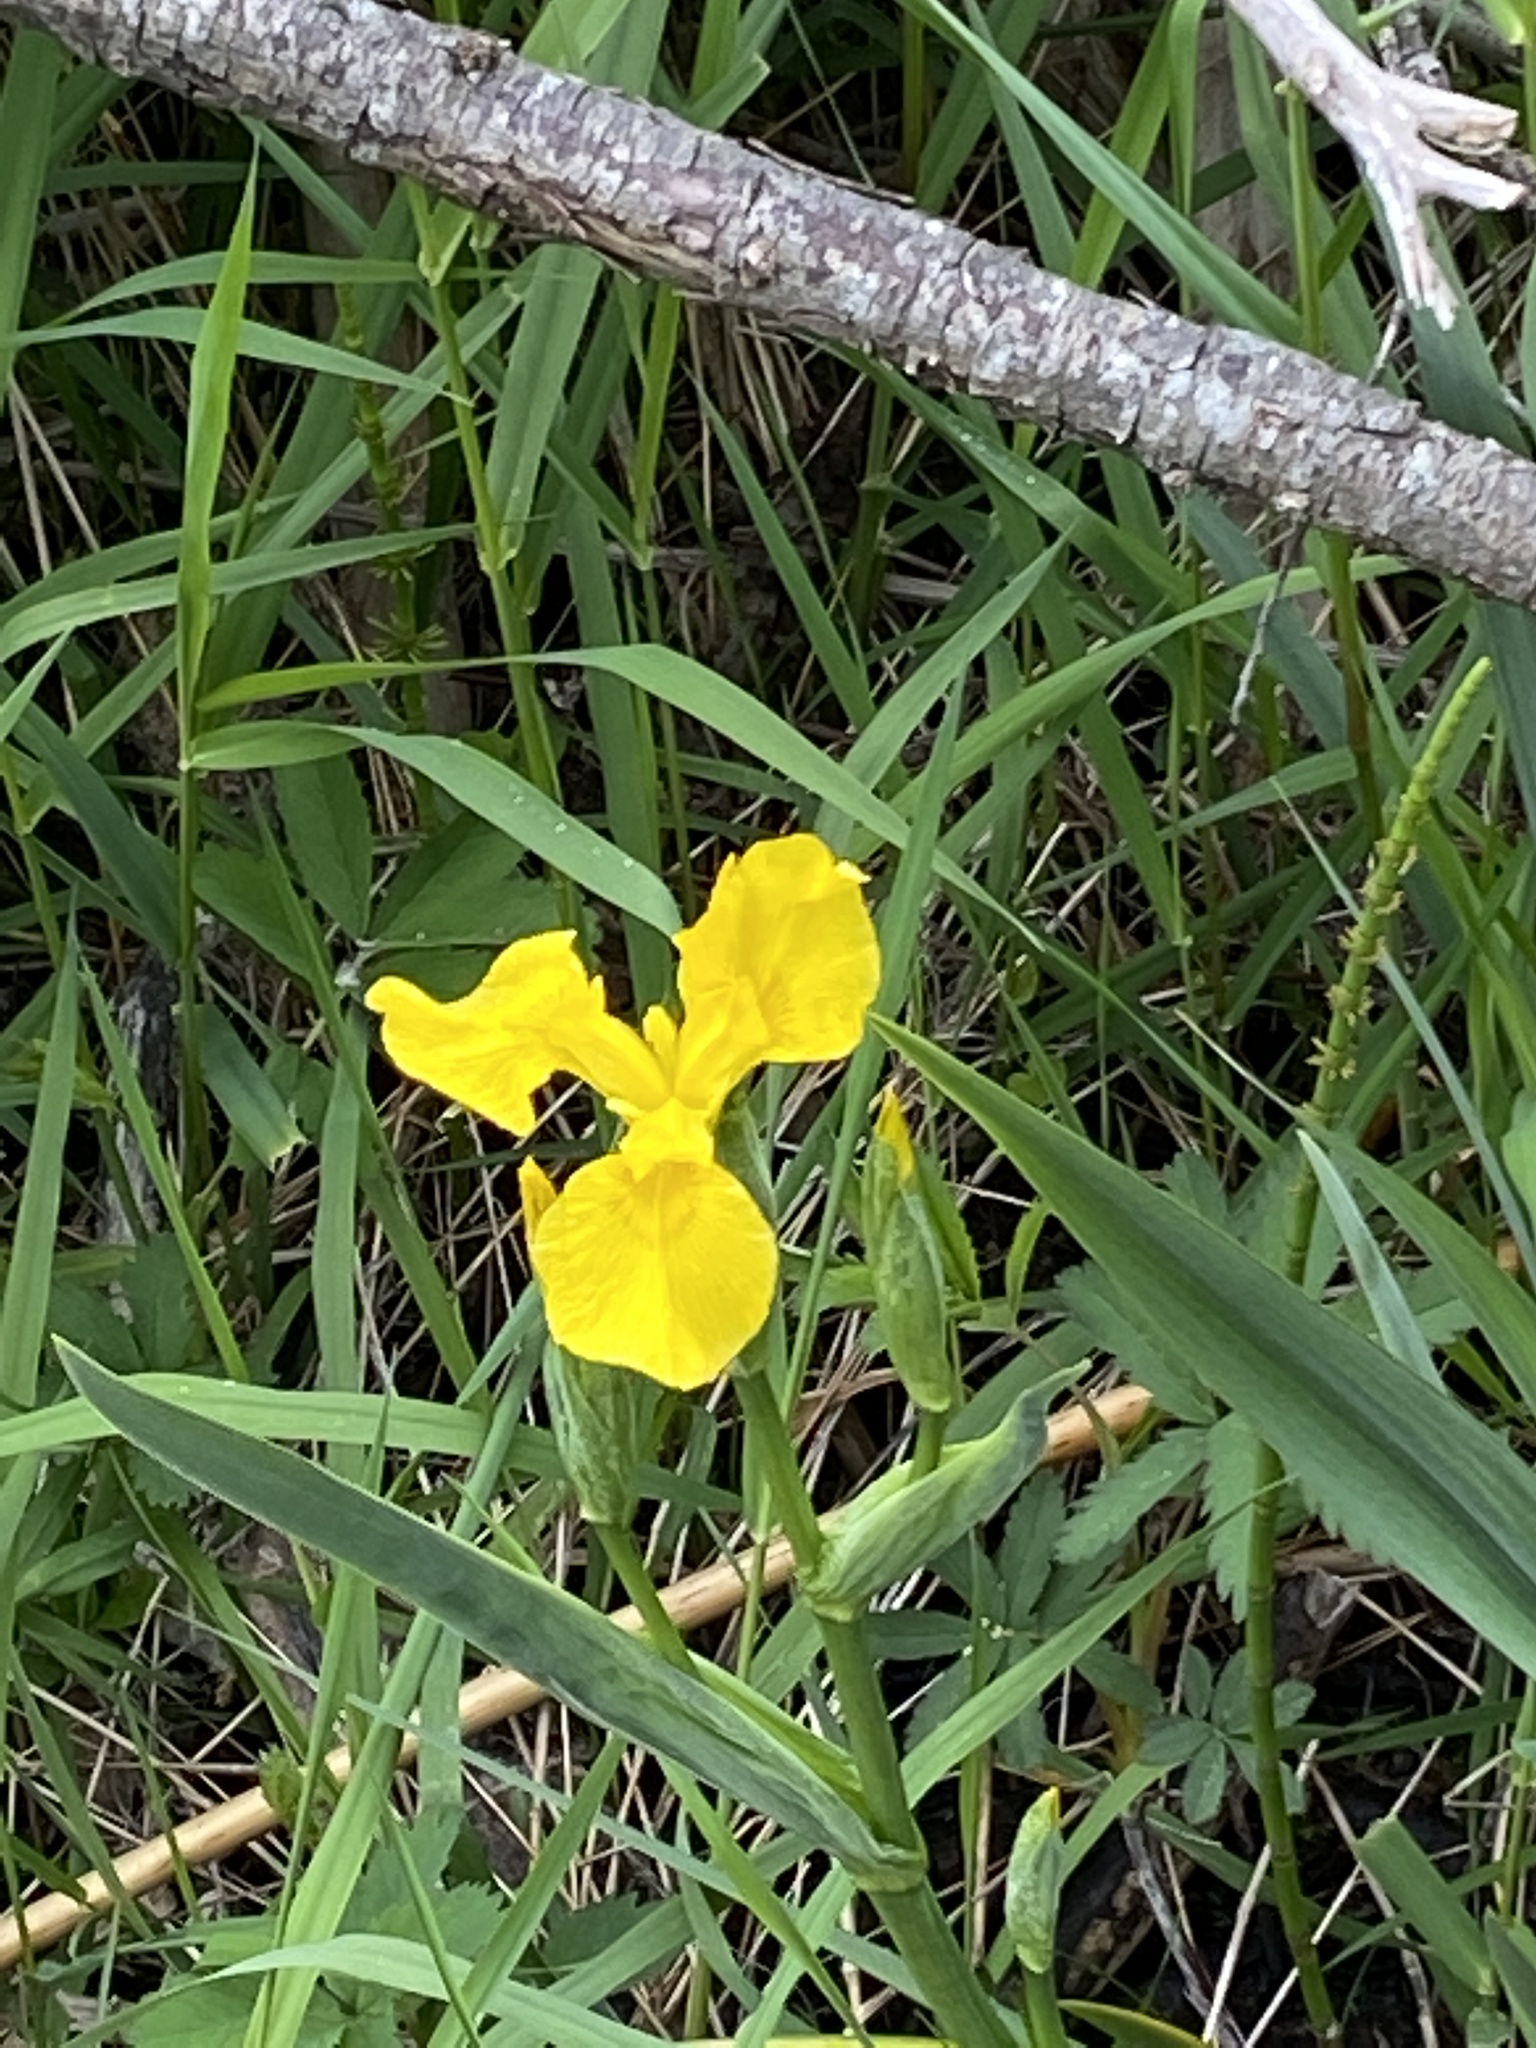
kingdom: Plantae
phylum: Tracheophyta
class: Liliopsida
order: Asparagales
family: Iridaceae
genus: Iris
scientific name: Iris pseudacorus
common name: Yellow flag
